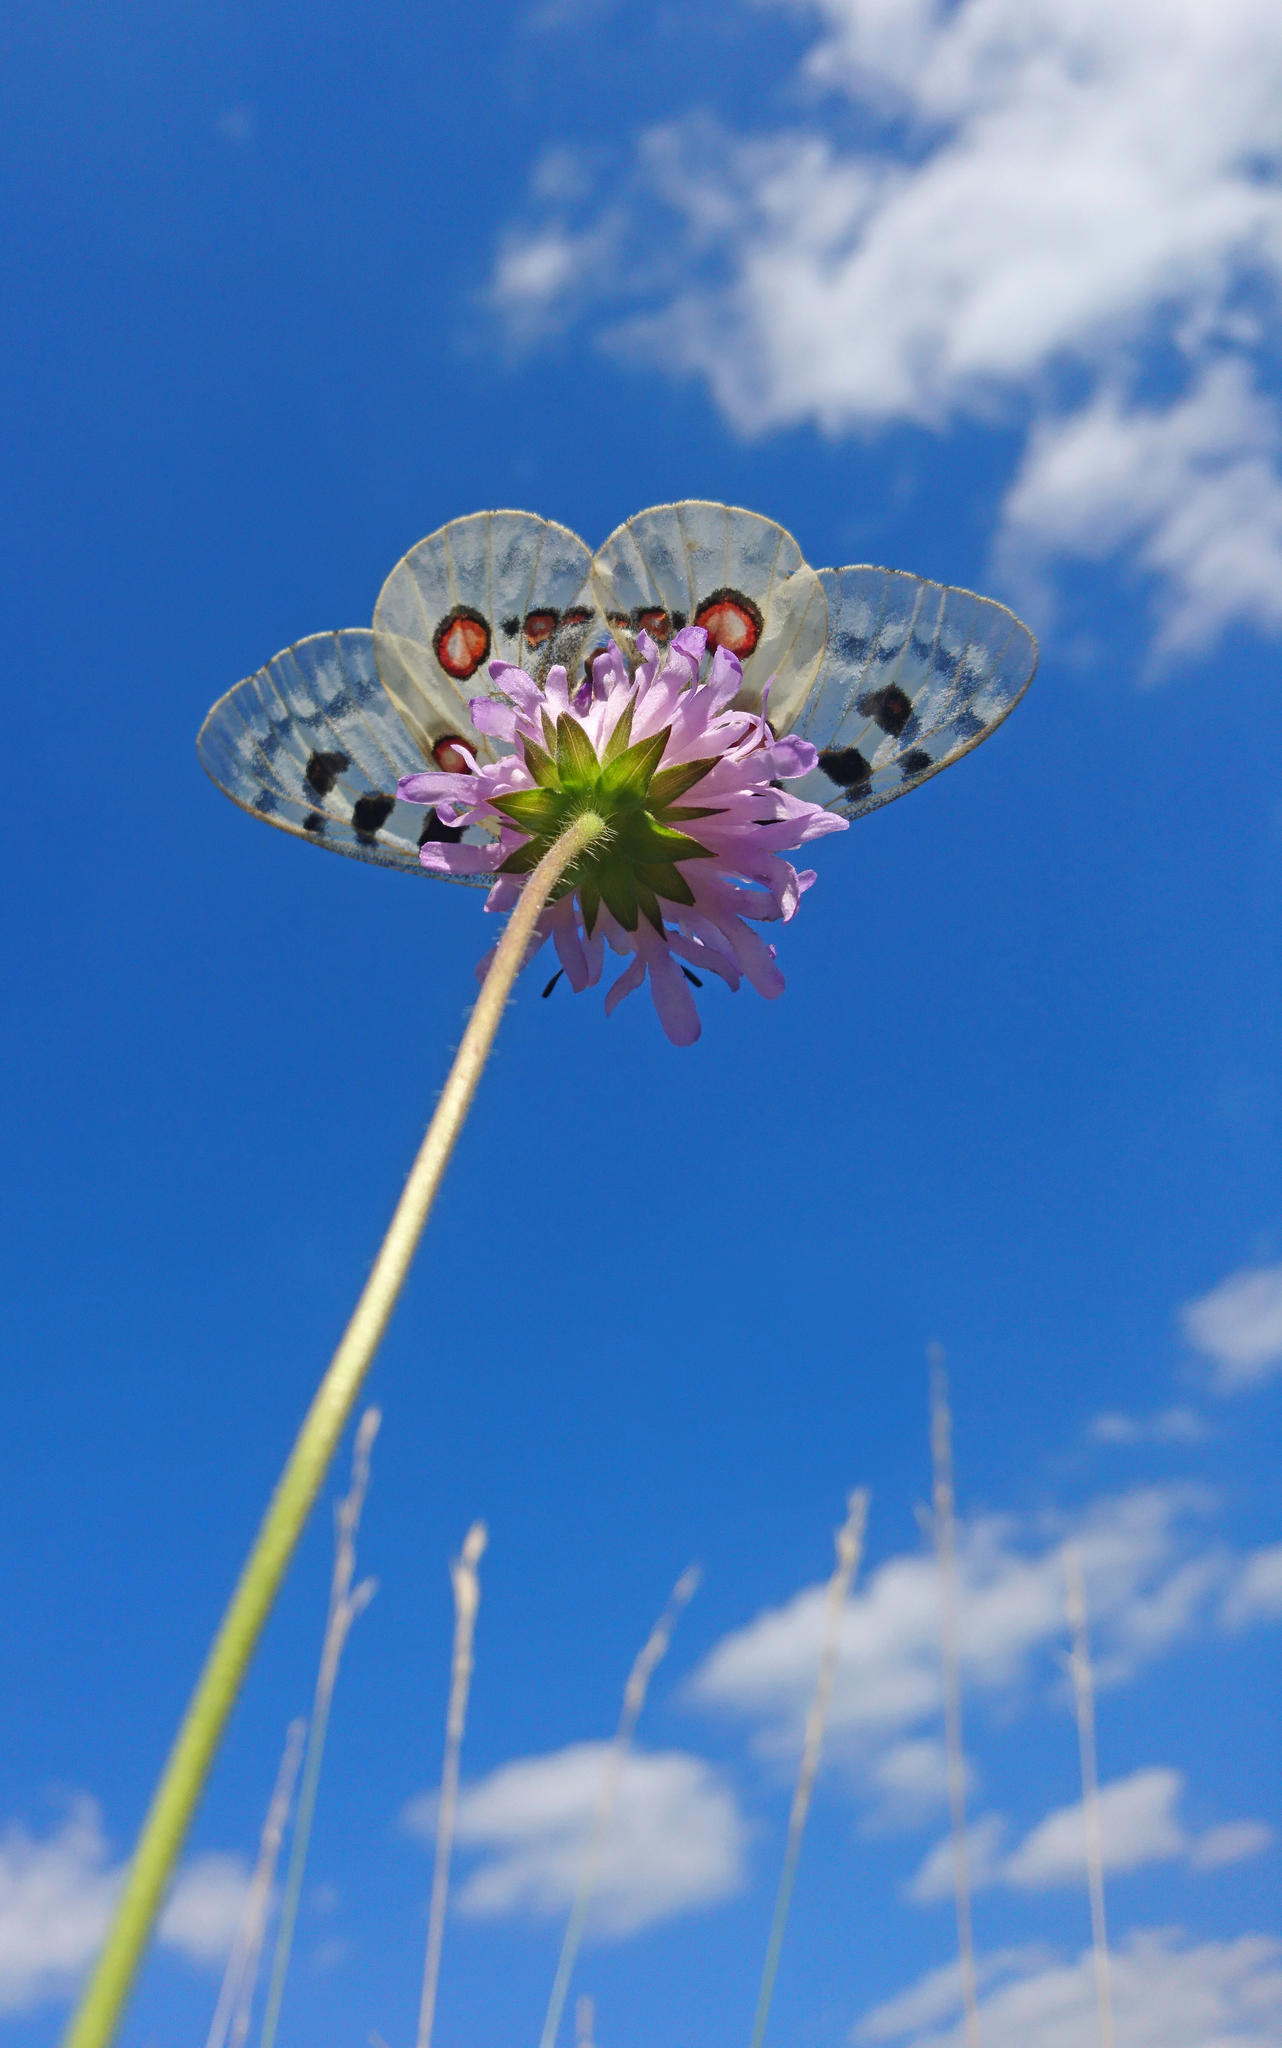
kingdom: Animalia
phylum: Arthropoda
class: Insecta
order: Lepidoptera
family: Papilionidae
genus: Parnassius
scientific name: Parnassius apollo
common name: Apollo
